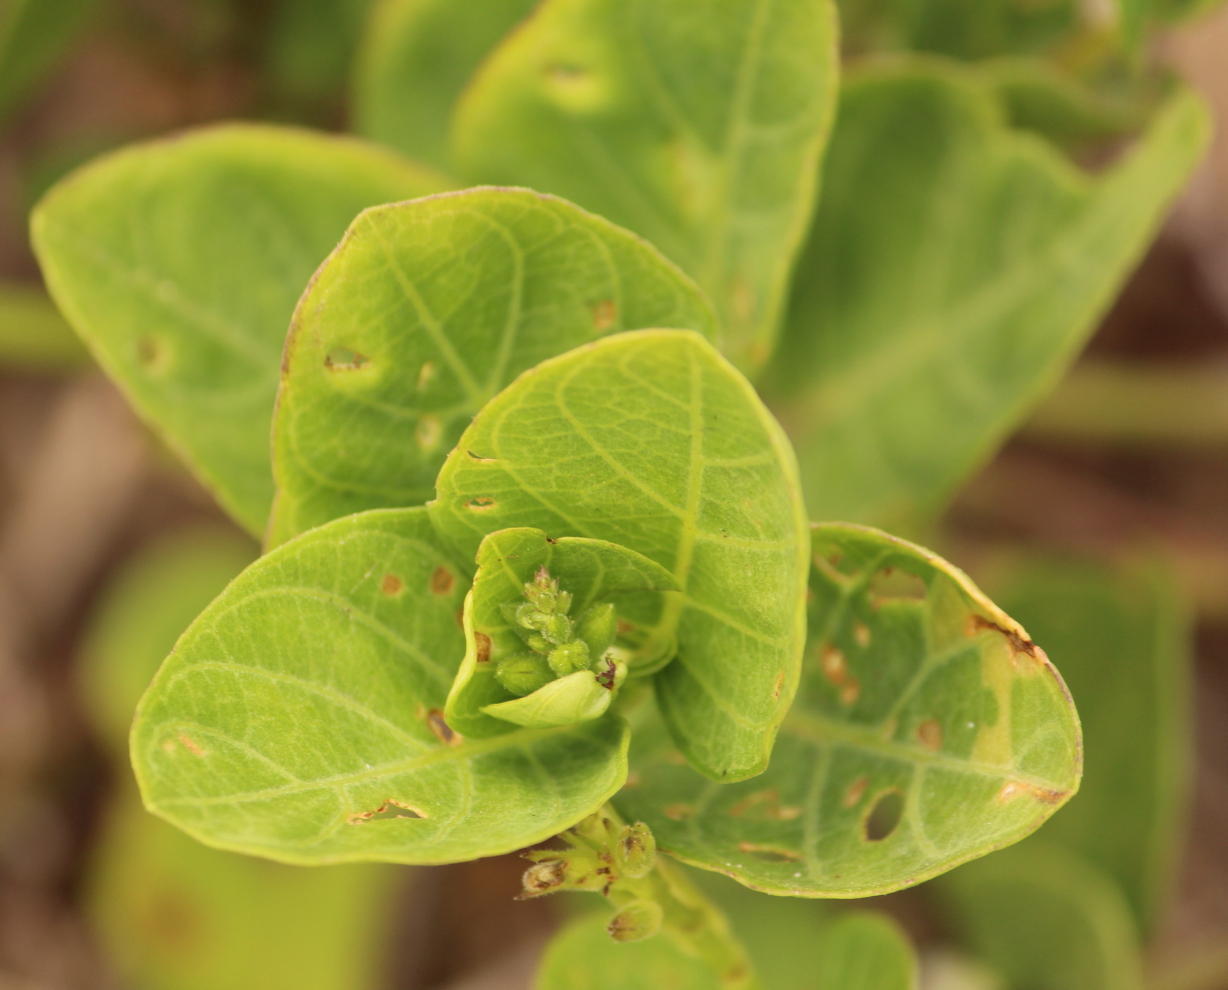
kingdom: Plantae
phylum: Tracheophyta
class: Magnoliopsida
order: Lamiales
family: Acanthaceae
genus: Asystasia
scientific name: Asystasia intrusa
